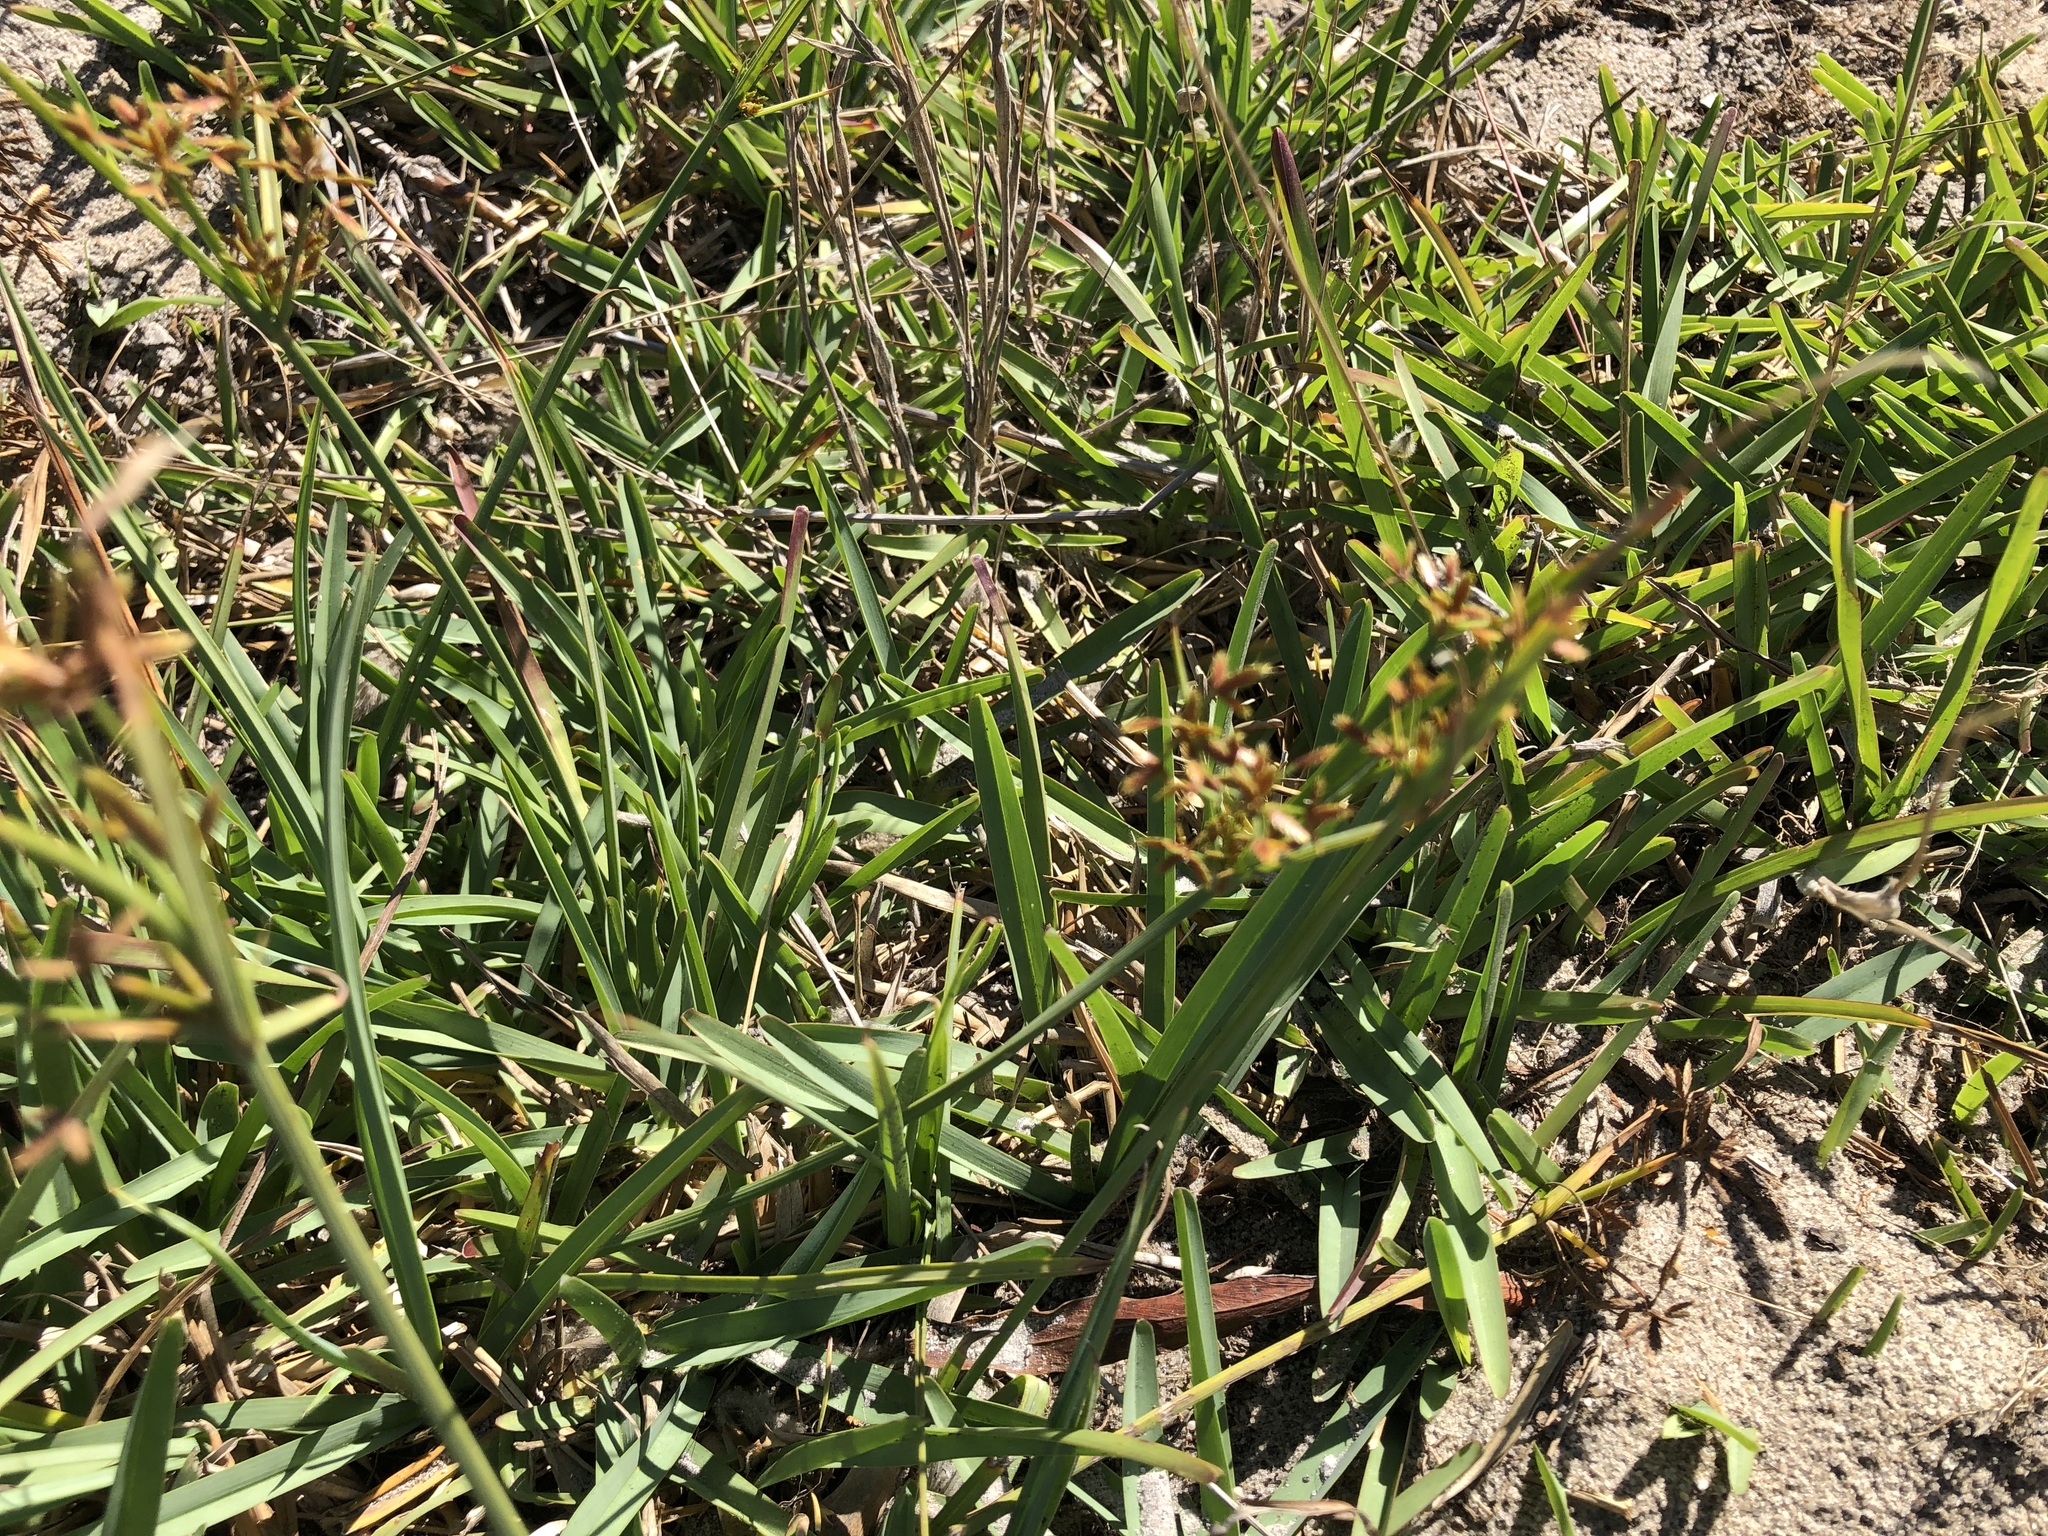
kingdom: Plantae
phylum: Tracheophyta
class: Liliopsida
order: Poales
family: Poaceae
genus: Stenotaphrum
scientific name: Stenotaphrum secundatum
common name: St. augustine grass
